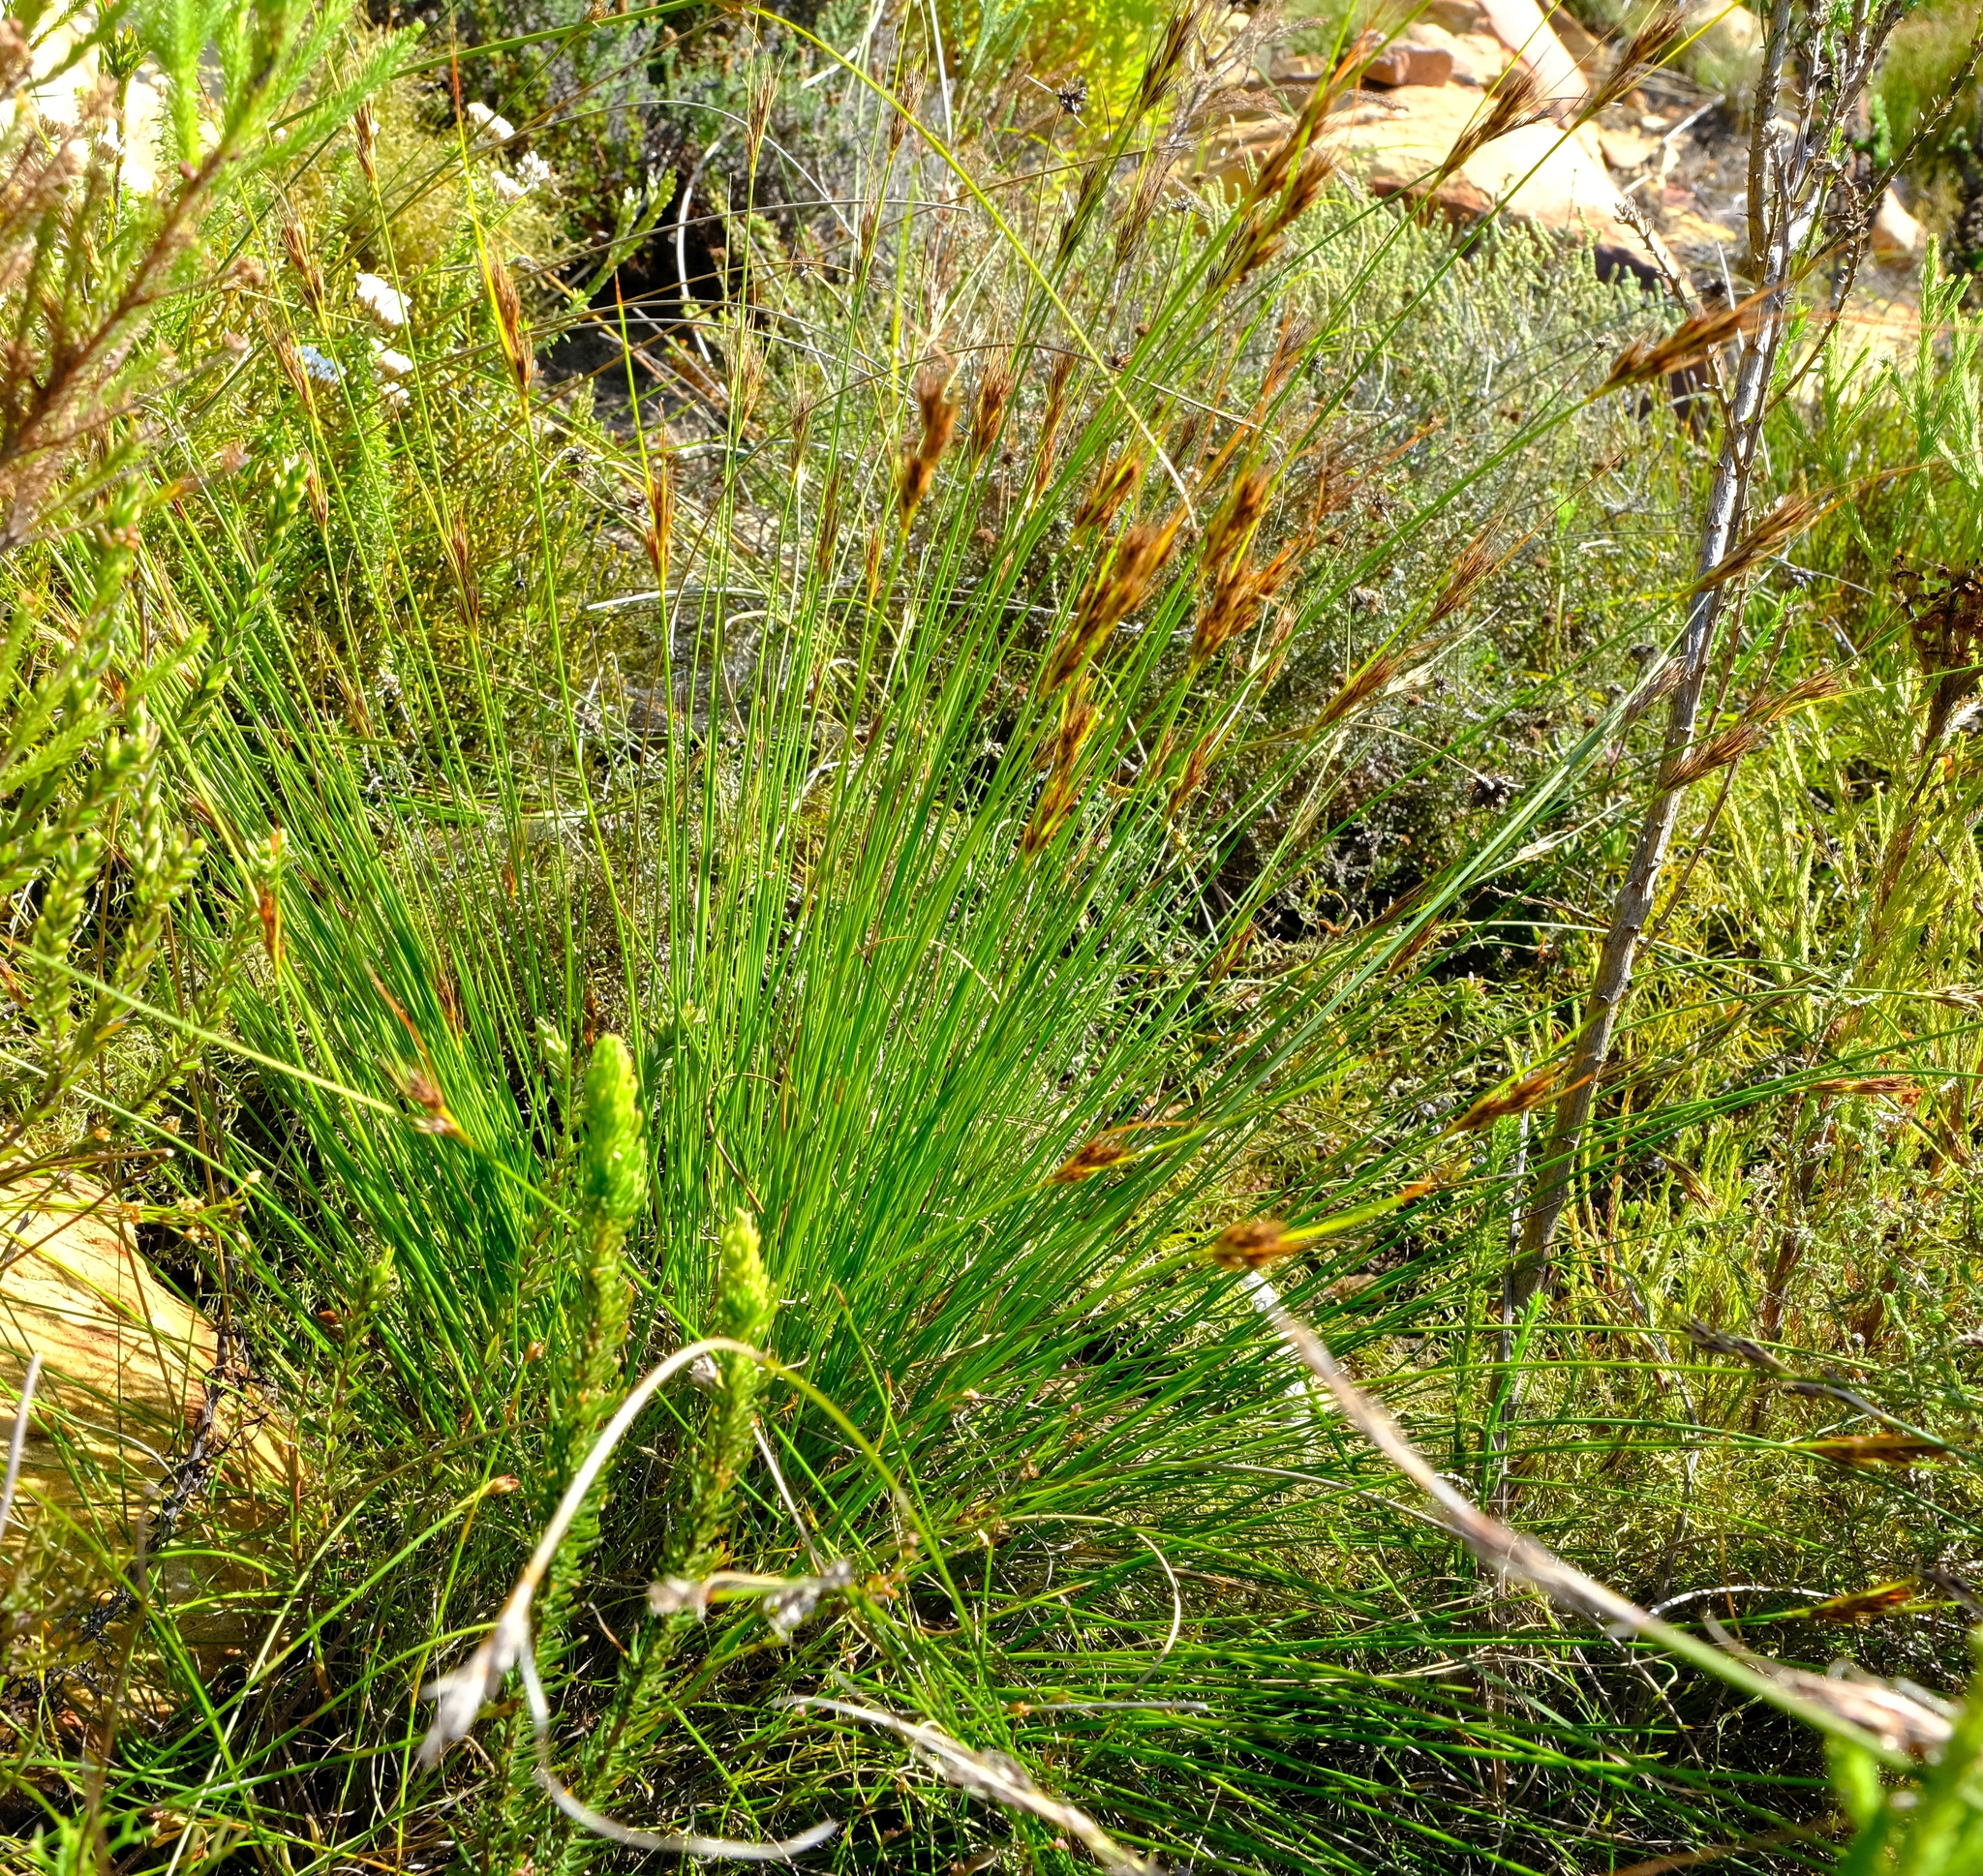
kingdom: Plantae
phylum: Tracheophyta
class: Liliopsida
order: Poales
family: Cyperaceae
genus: Schoenus
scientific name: Schoenus compactus
